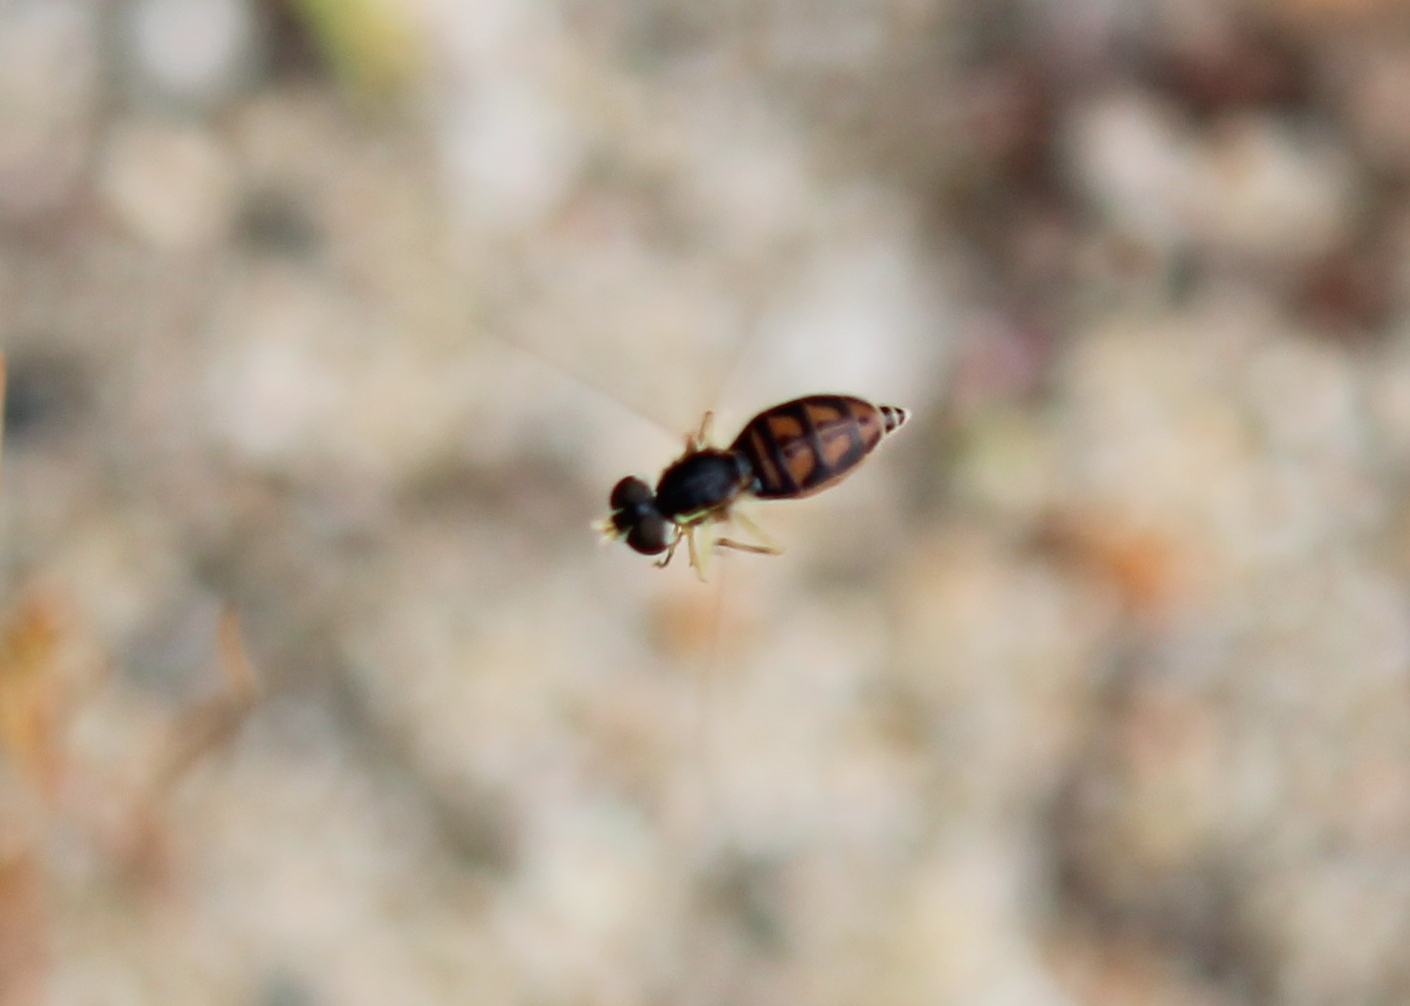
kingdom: Animalia
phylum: Arthropoda
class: Insecta
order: Diptera
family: Syrphidae
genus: Toxomerus
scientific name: Toxomerus marginatus
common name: Syrphid fly
